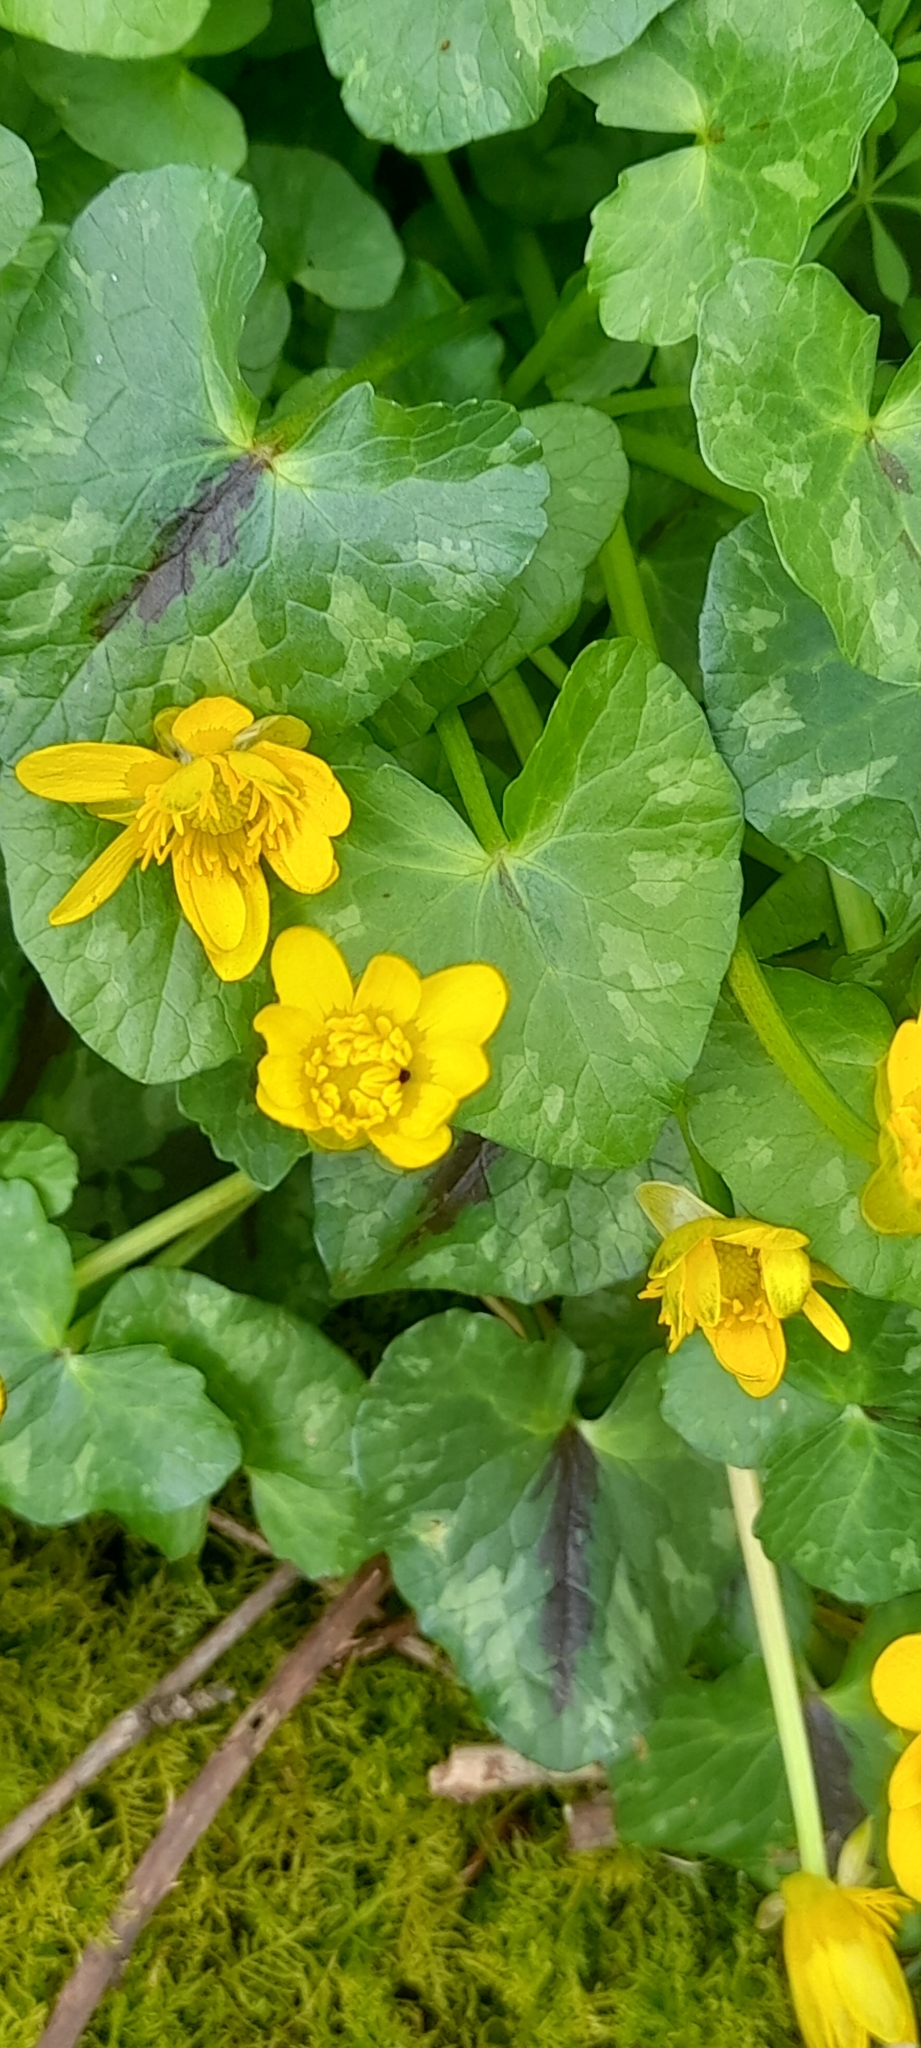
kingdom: Plantae
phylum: Tracheophyta
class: Magnoliopsida
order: Ranunculales
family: Ranunculaceae
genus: Ficaria
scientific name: Ficaria verna
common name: Lesser celandine
